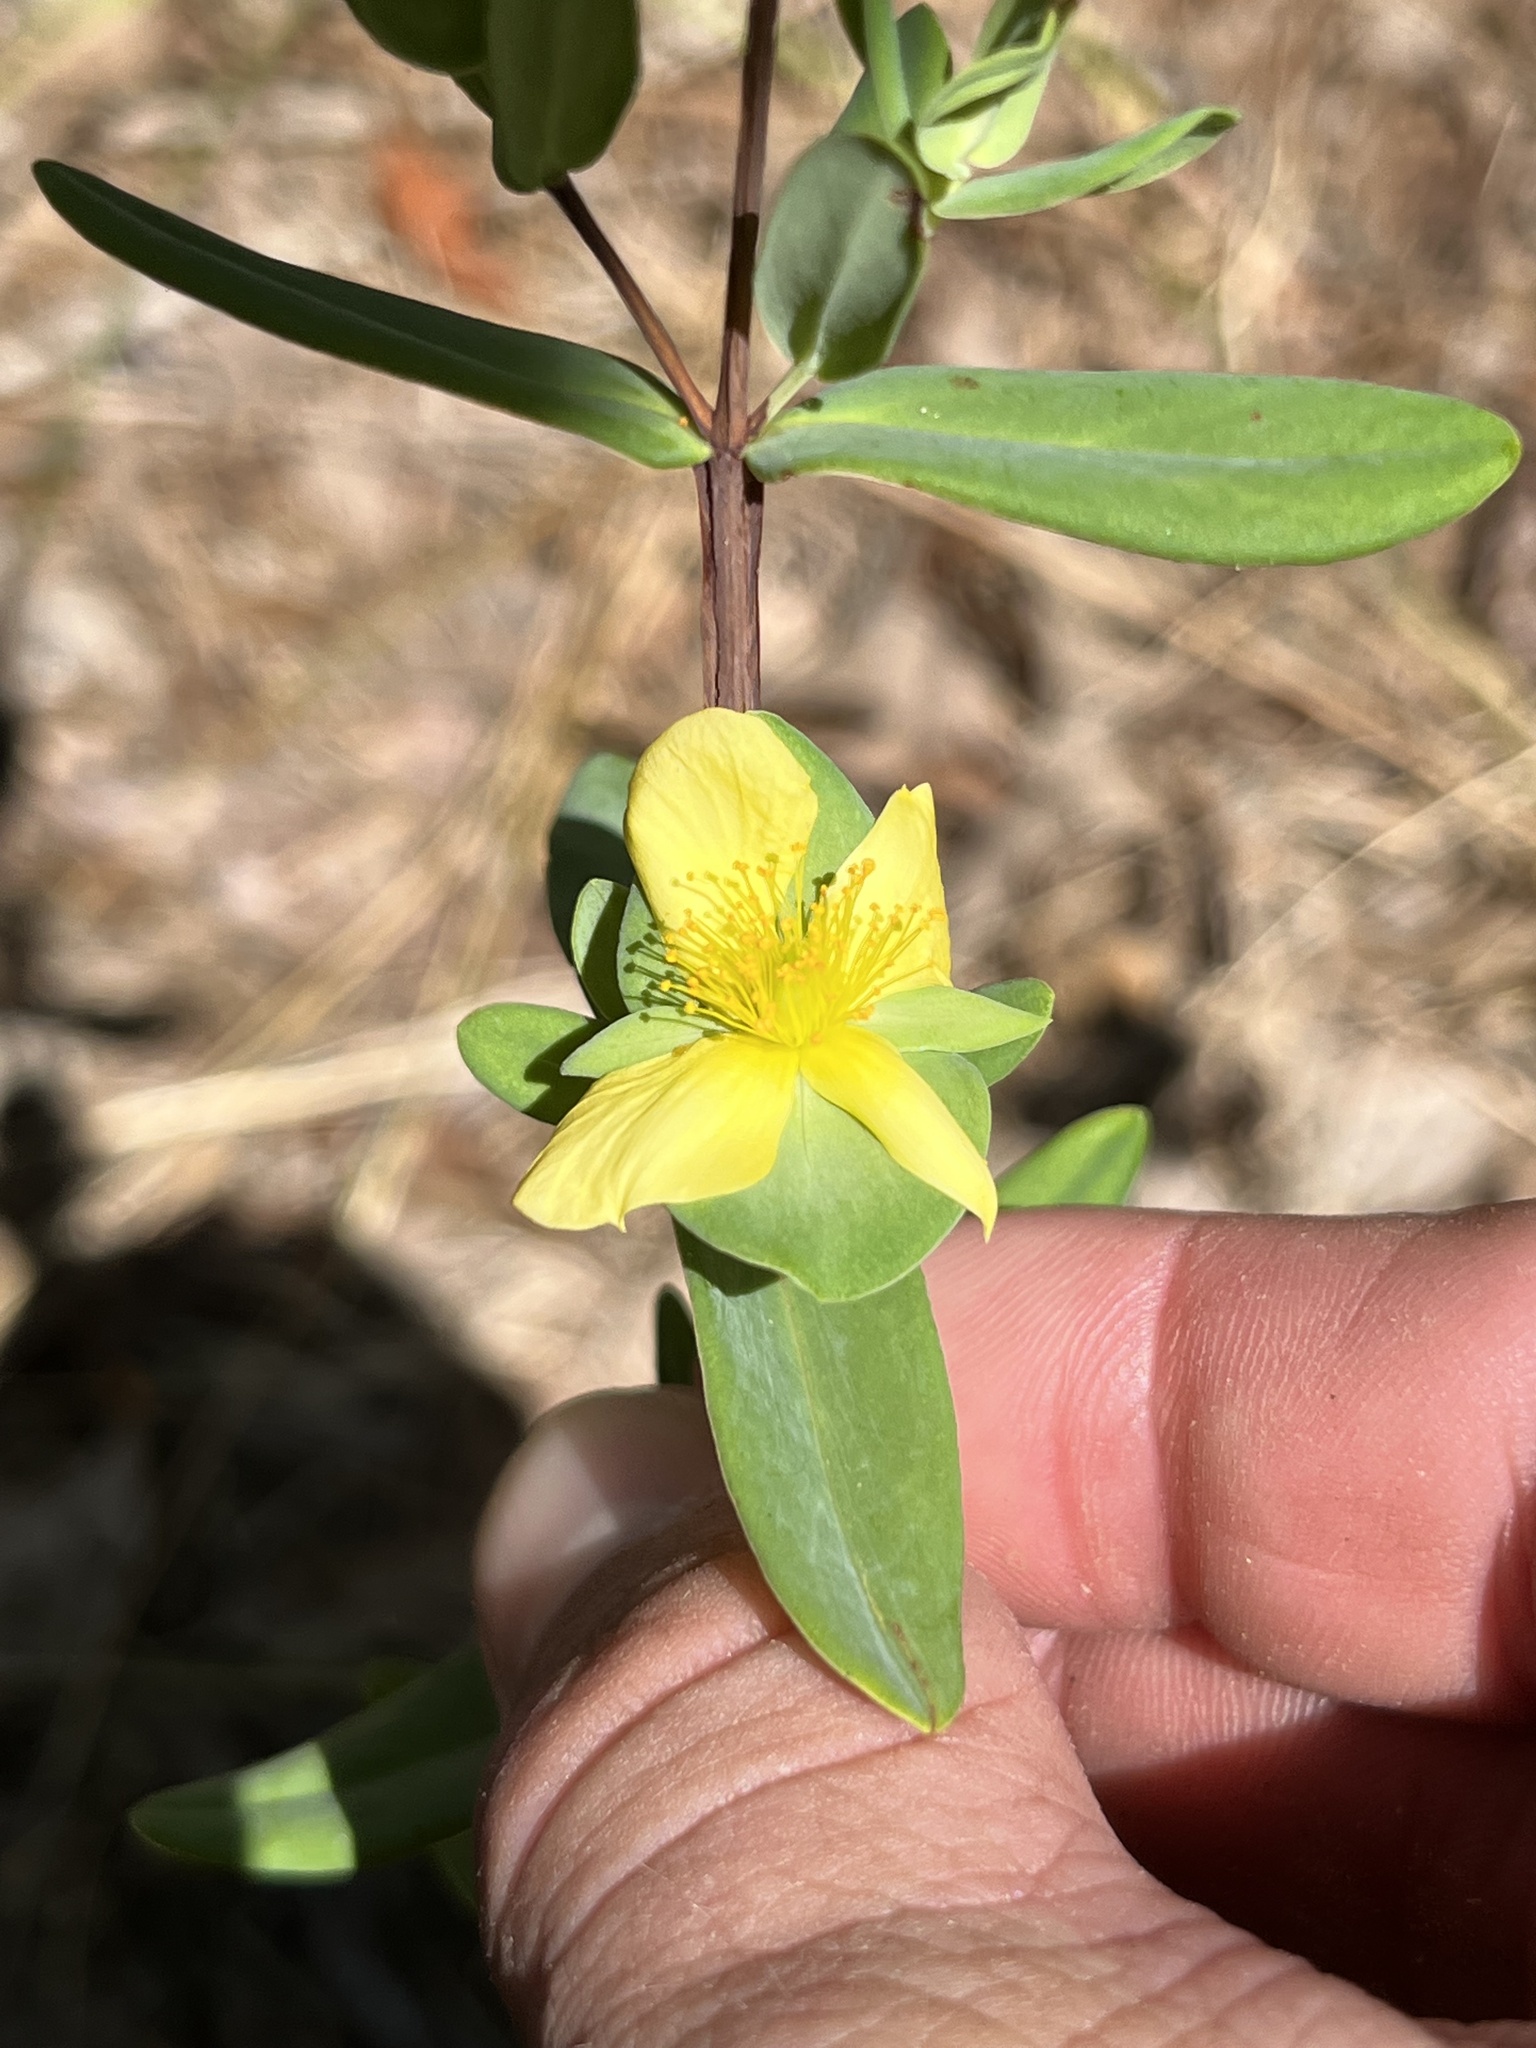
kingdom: Plantae
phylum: Tracheophyta
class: Magnoliopsida
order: Malpighiales
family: Hypericaceae
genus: Hypericum
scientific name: Hypericum crux-andreae
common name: St.-peter's-wort
